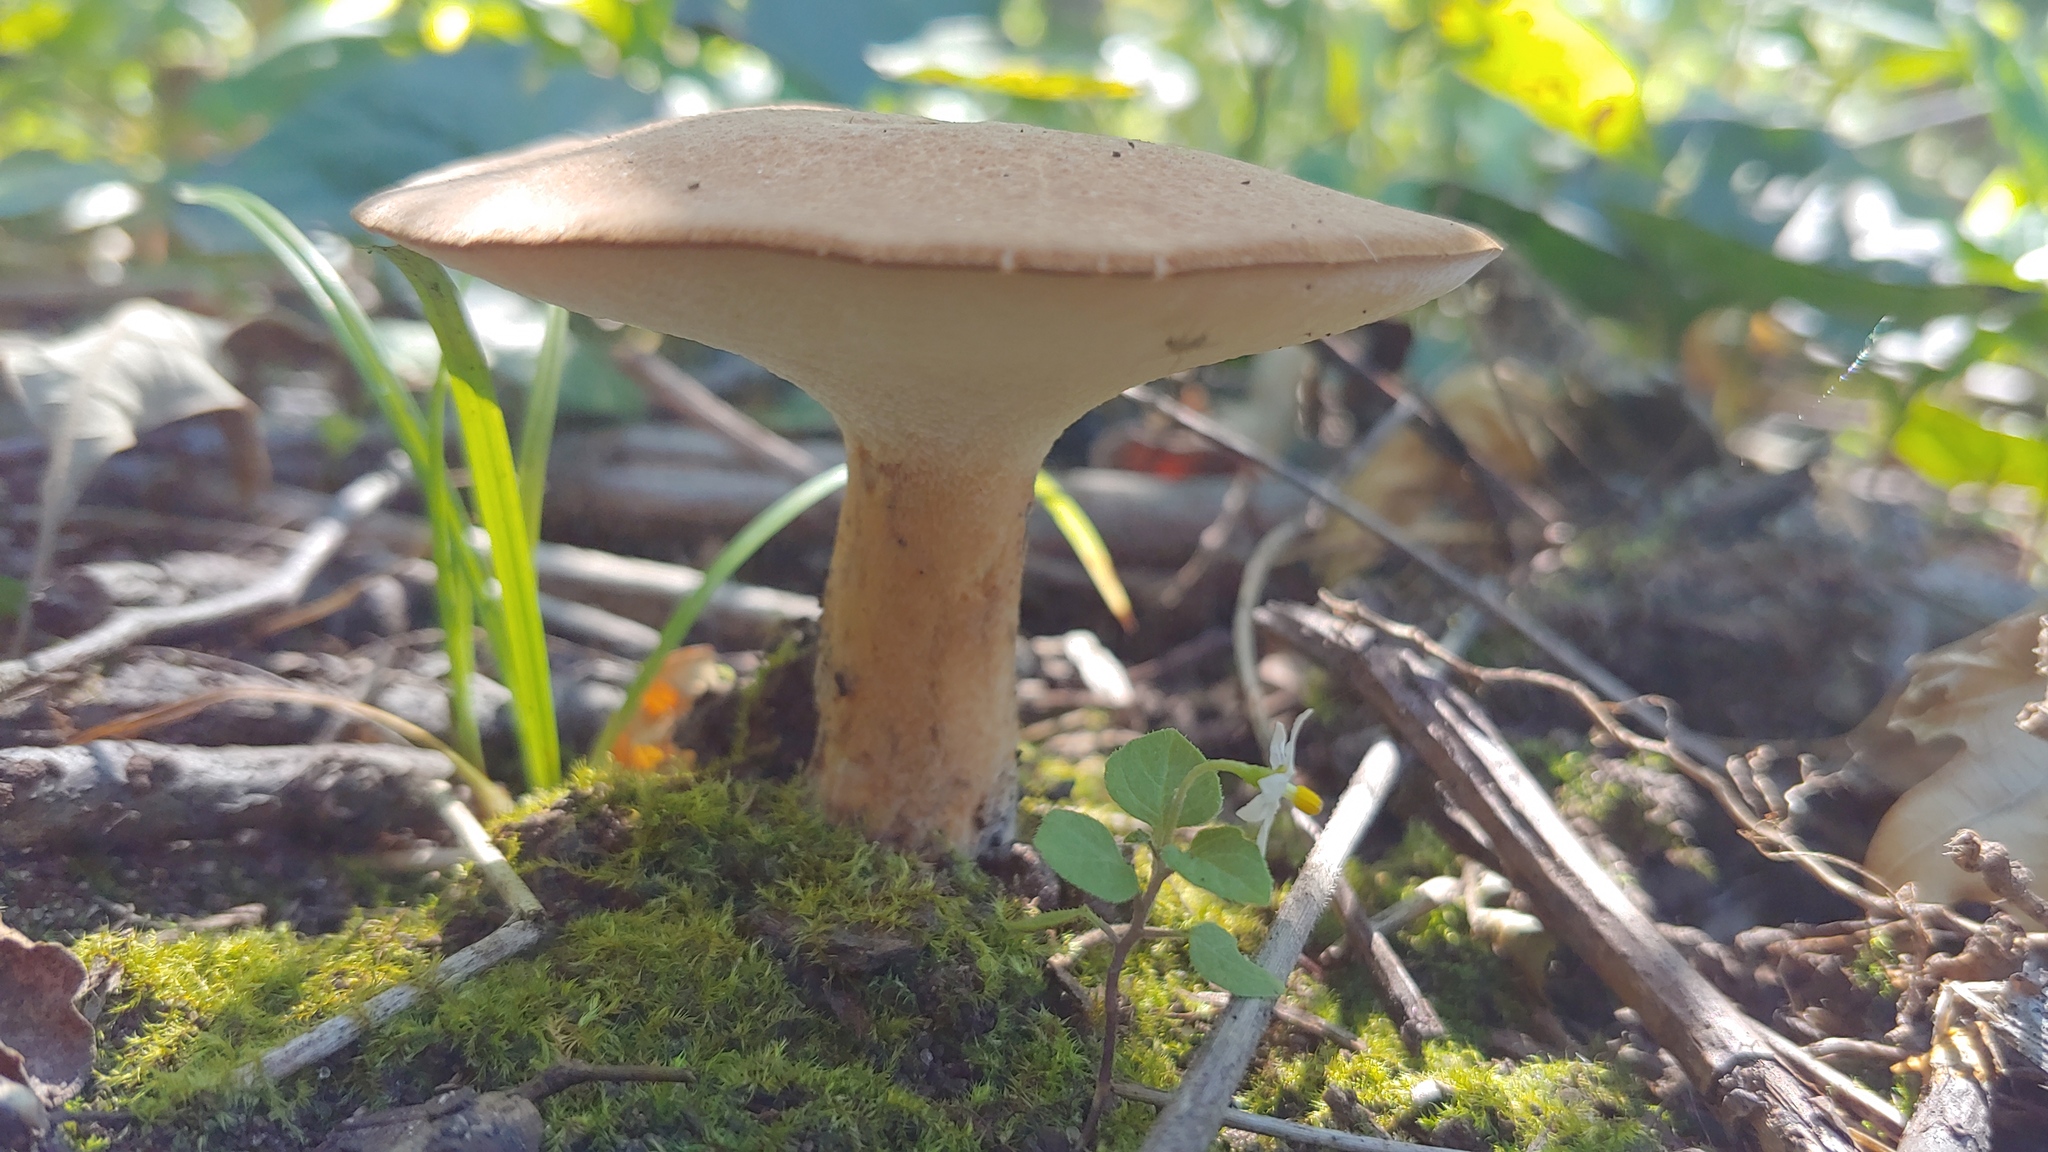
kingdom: Fungi
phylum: Basidiomycota
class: Agaricomycetes
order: Polyporales
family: Polyporaceae
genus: Polyporus
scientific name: Polyporus radicatus
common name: Rooting polypore
